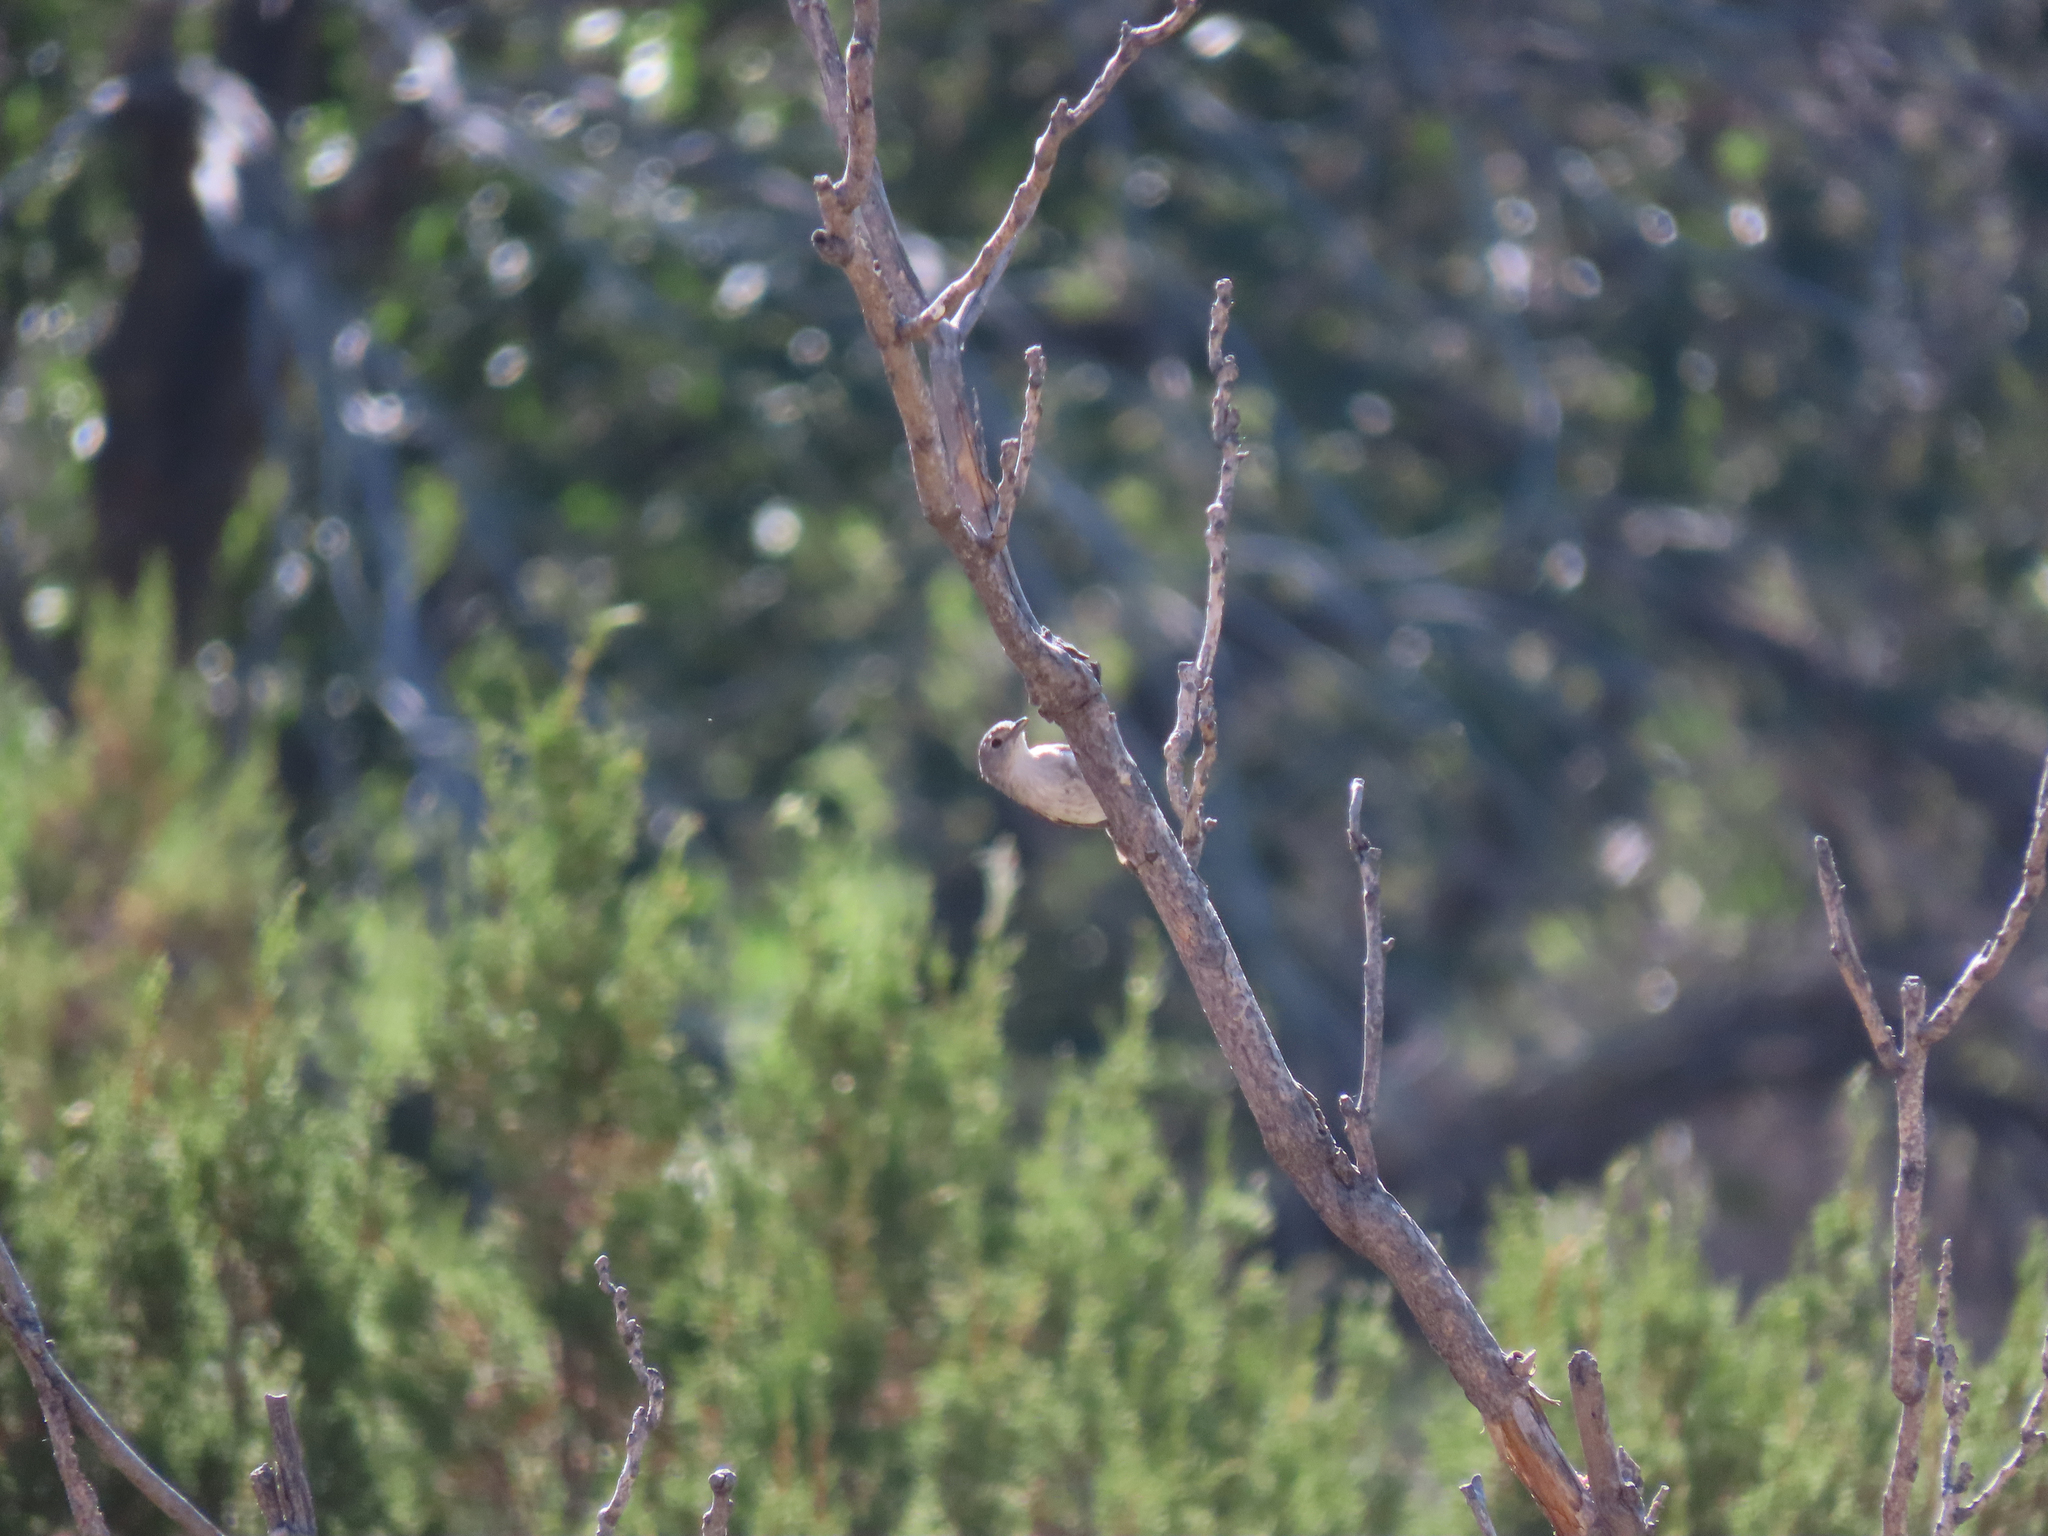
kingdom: Animalia
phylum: Chordata
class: Aves
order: Passeriformes
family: Vireonidae
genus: Vireo
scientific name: Vireo vicinior
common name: Gray vireo
